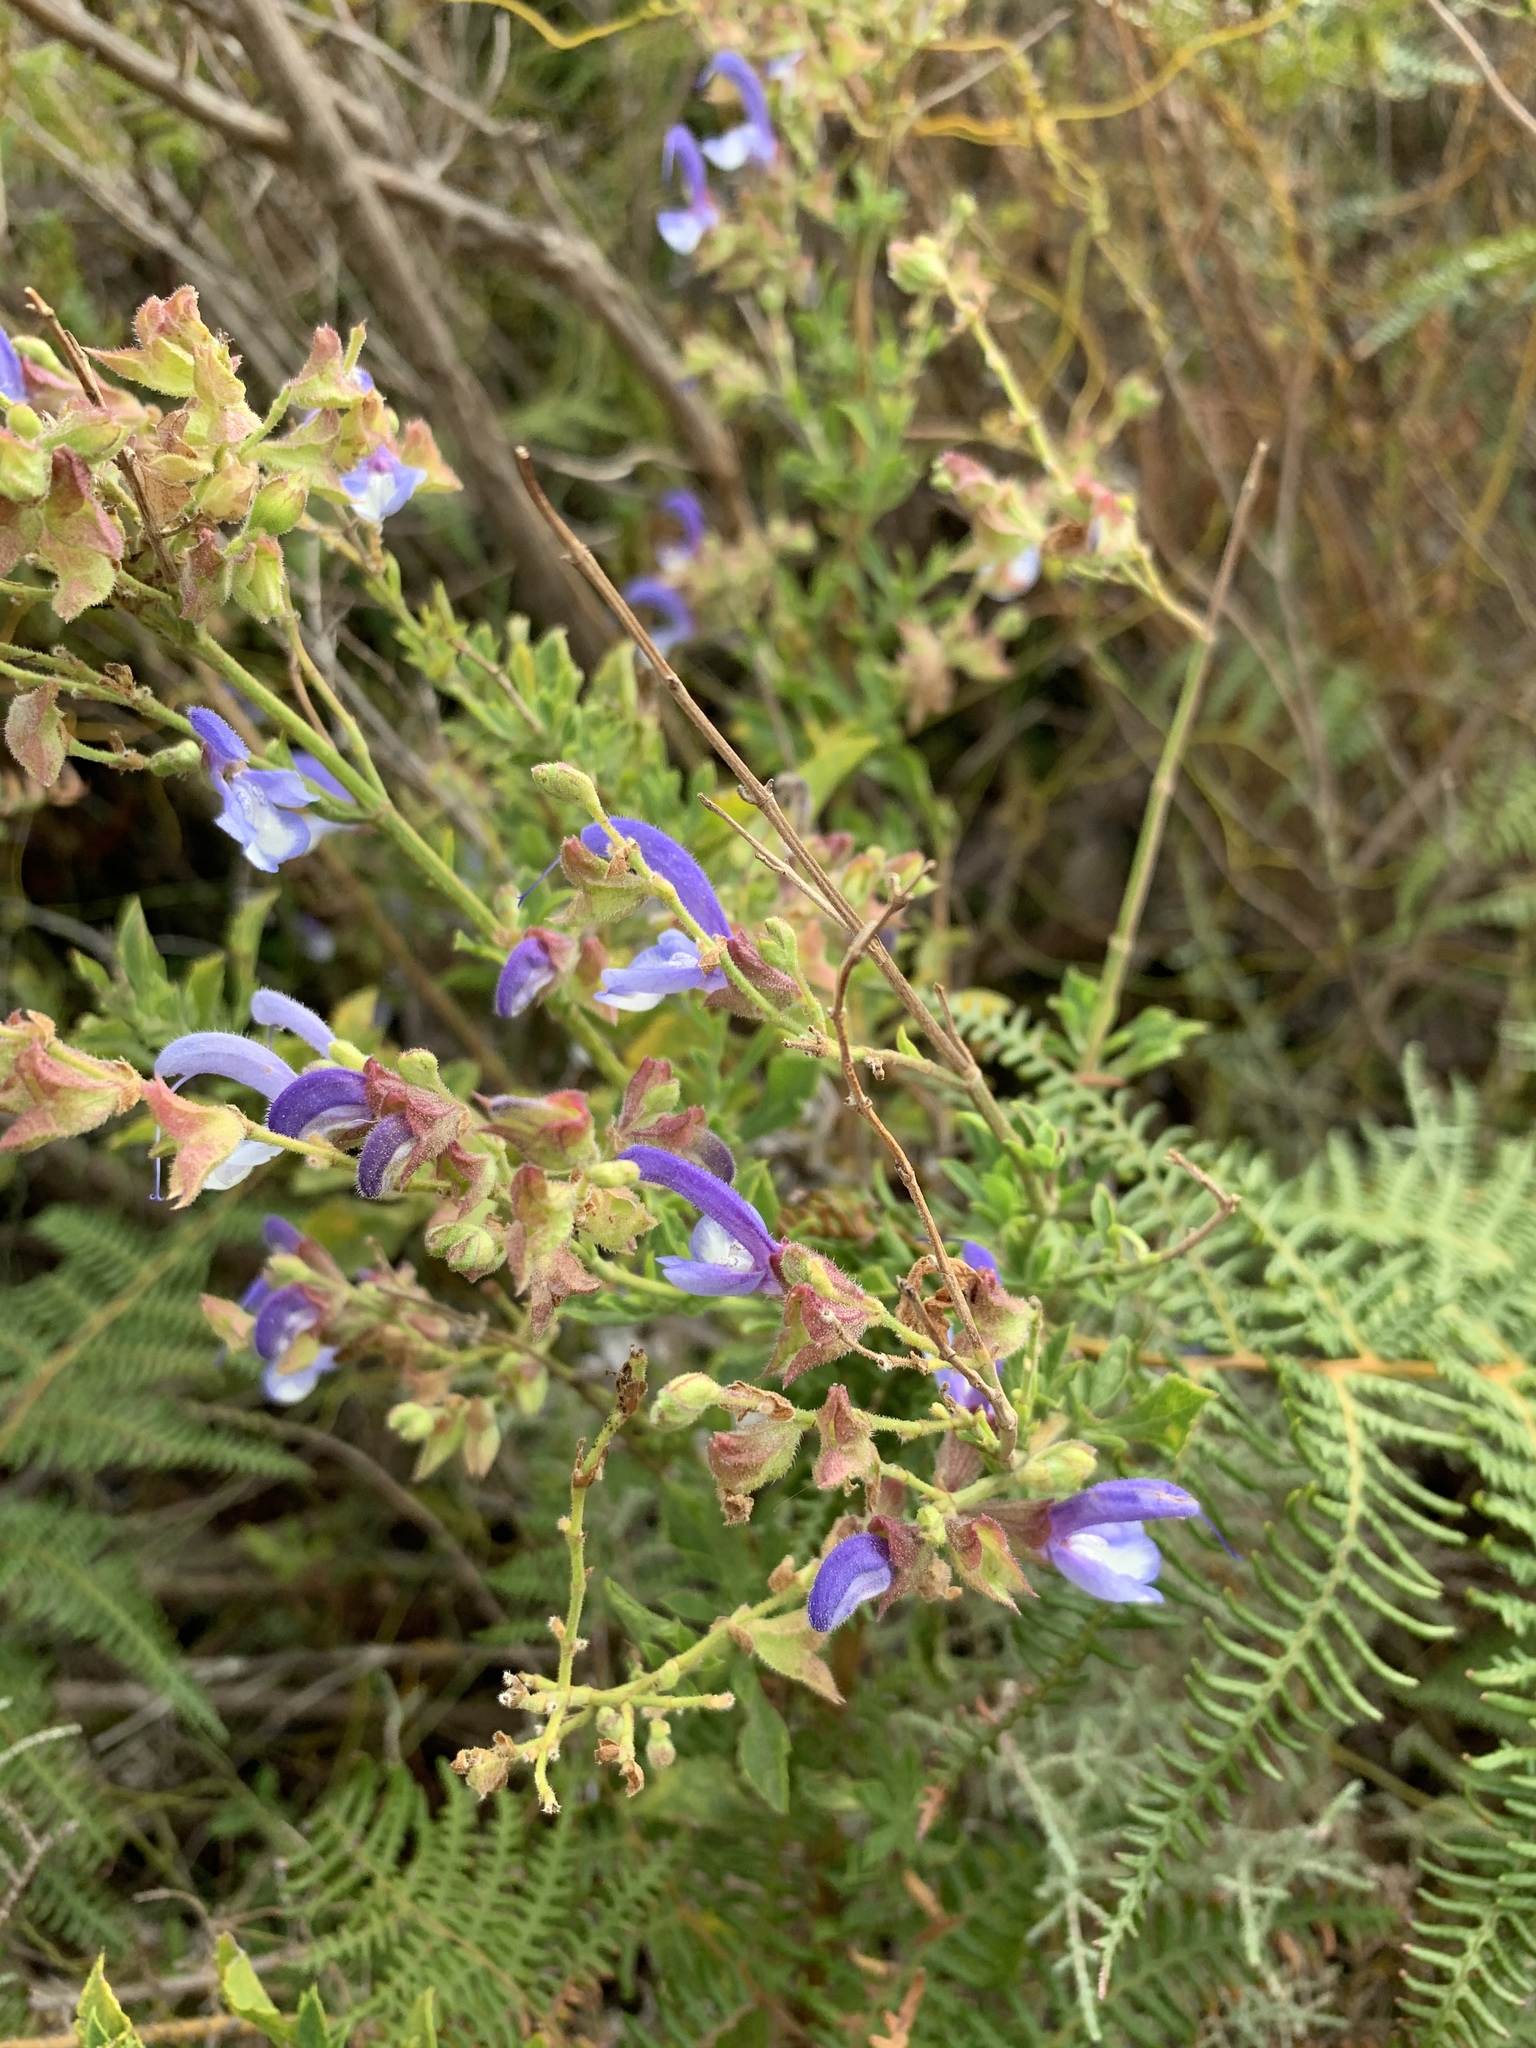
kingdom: Plantae
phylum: Tracheophyta
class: Magnoliopsida
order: Lamiales
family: Lamiaceae
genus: Salvia
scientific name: Salvia africana
